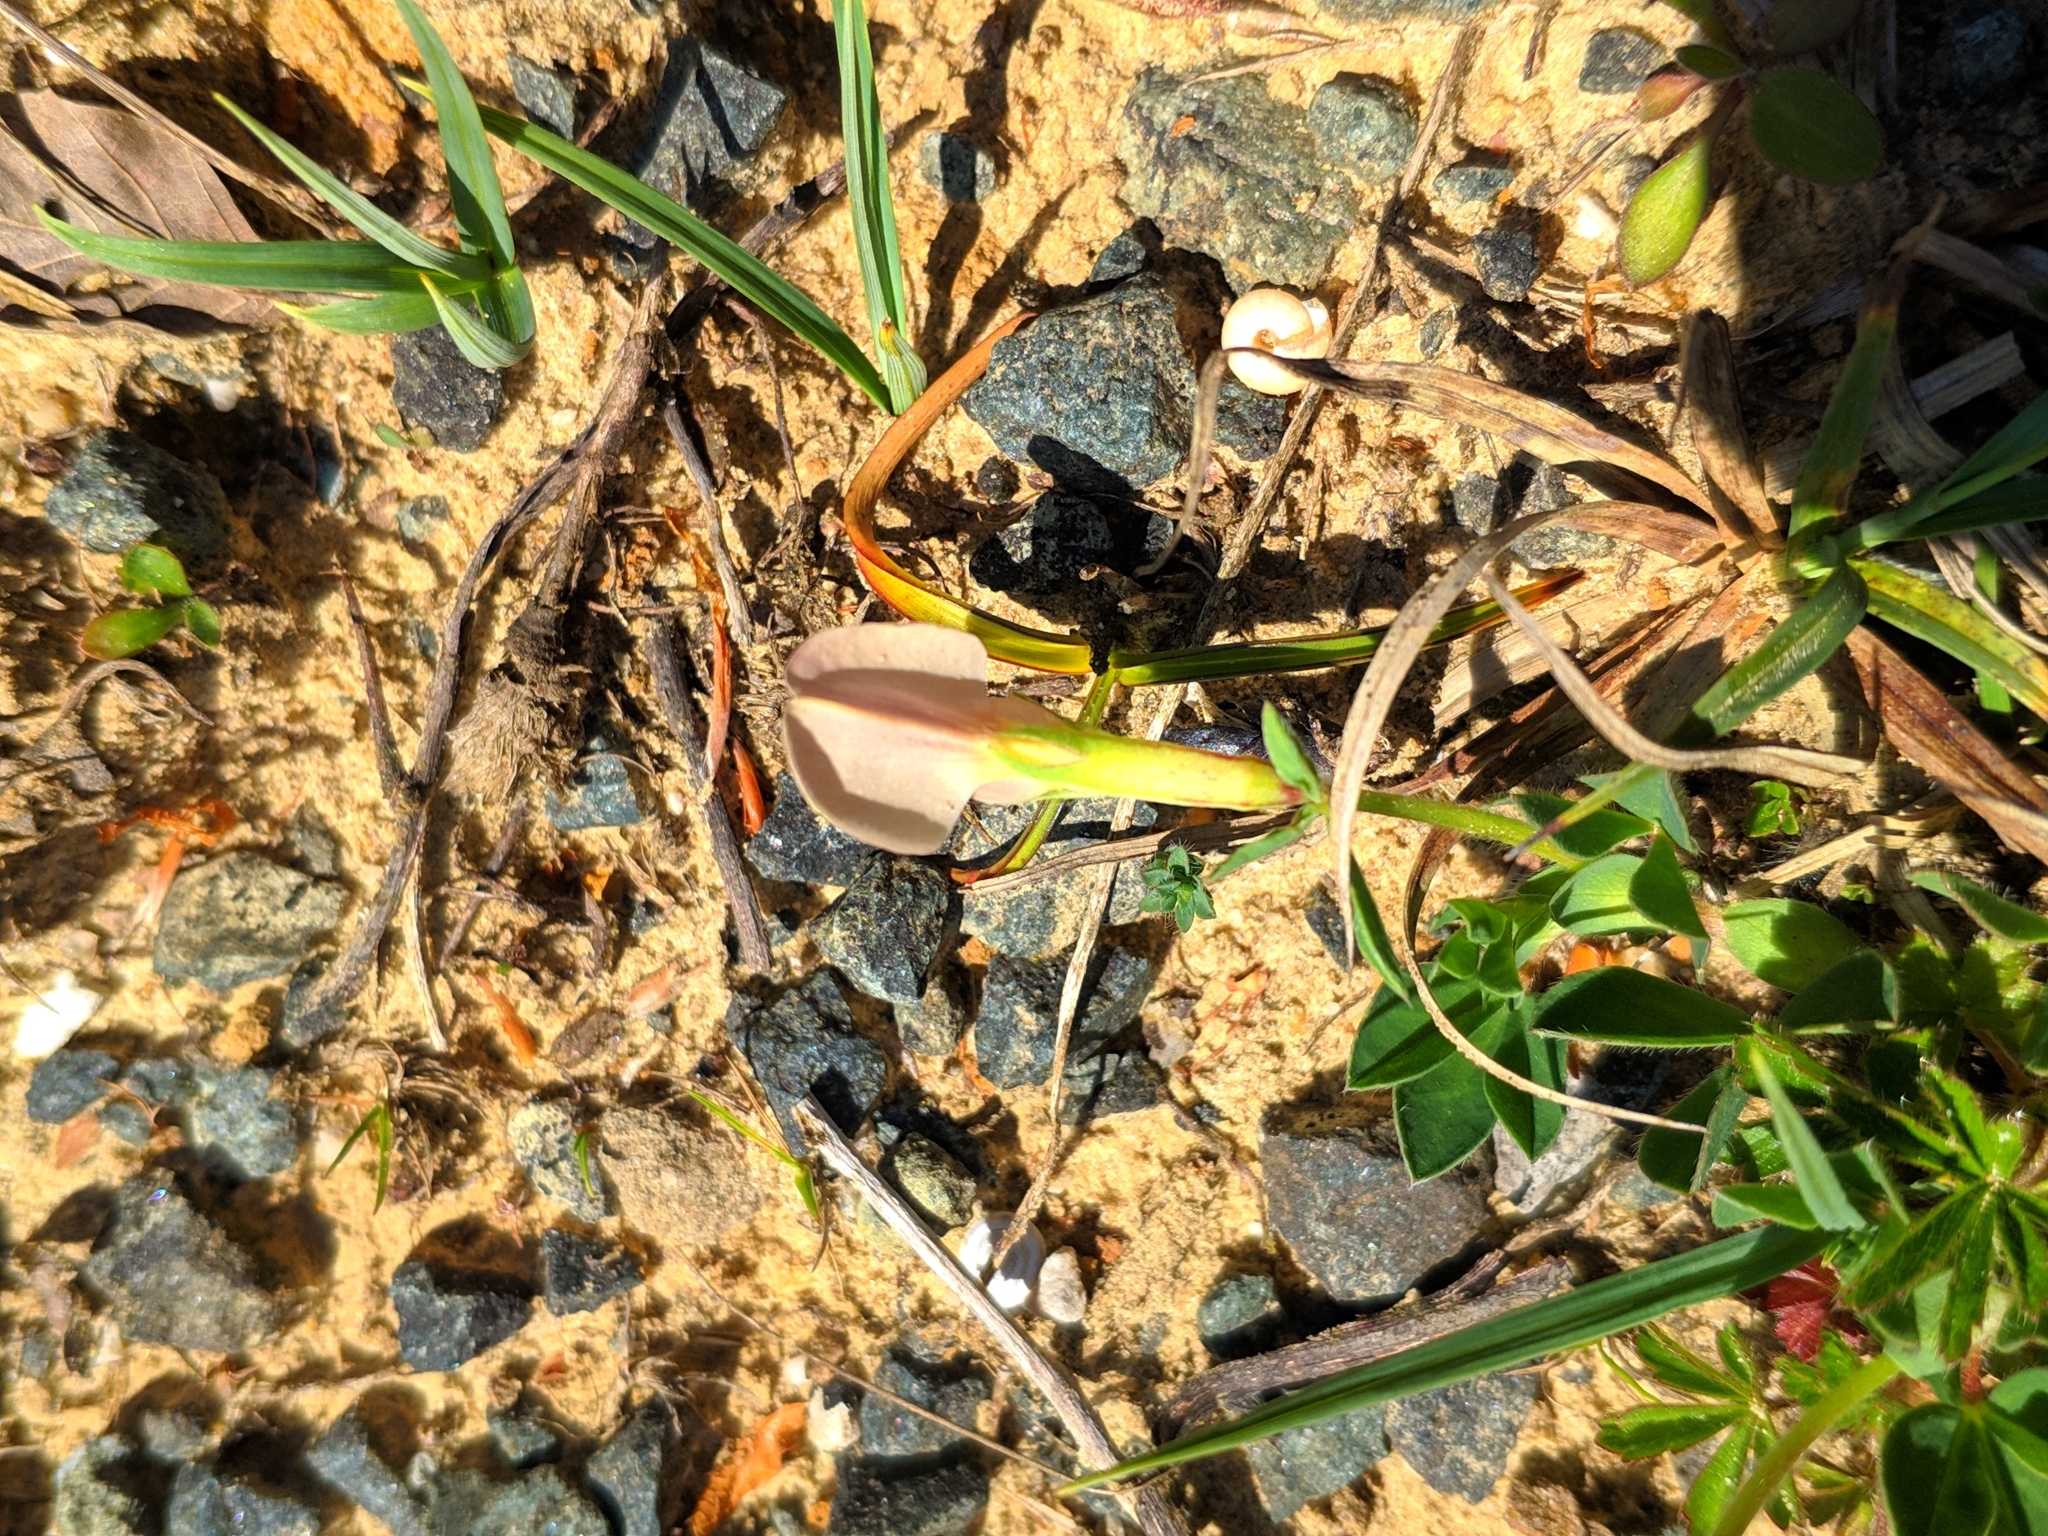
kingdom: Plantae
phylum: Tracheophyta
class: Magnoliopsida
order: Fabales
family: Fabaceae
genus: Lotus
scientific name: Lotus maritimus
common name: Dragon's-teeth
